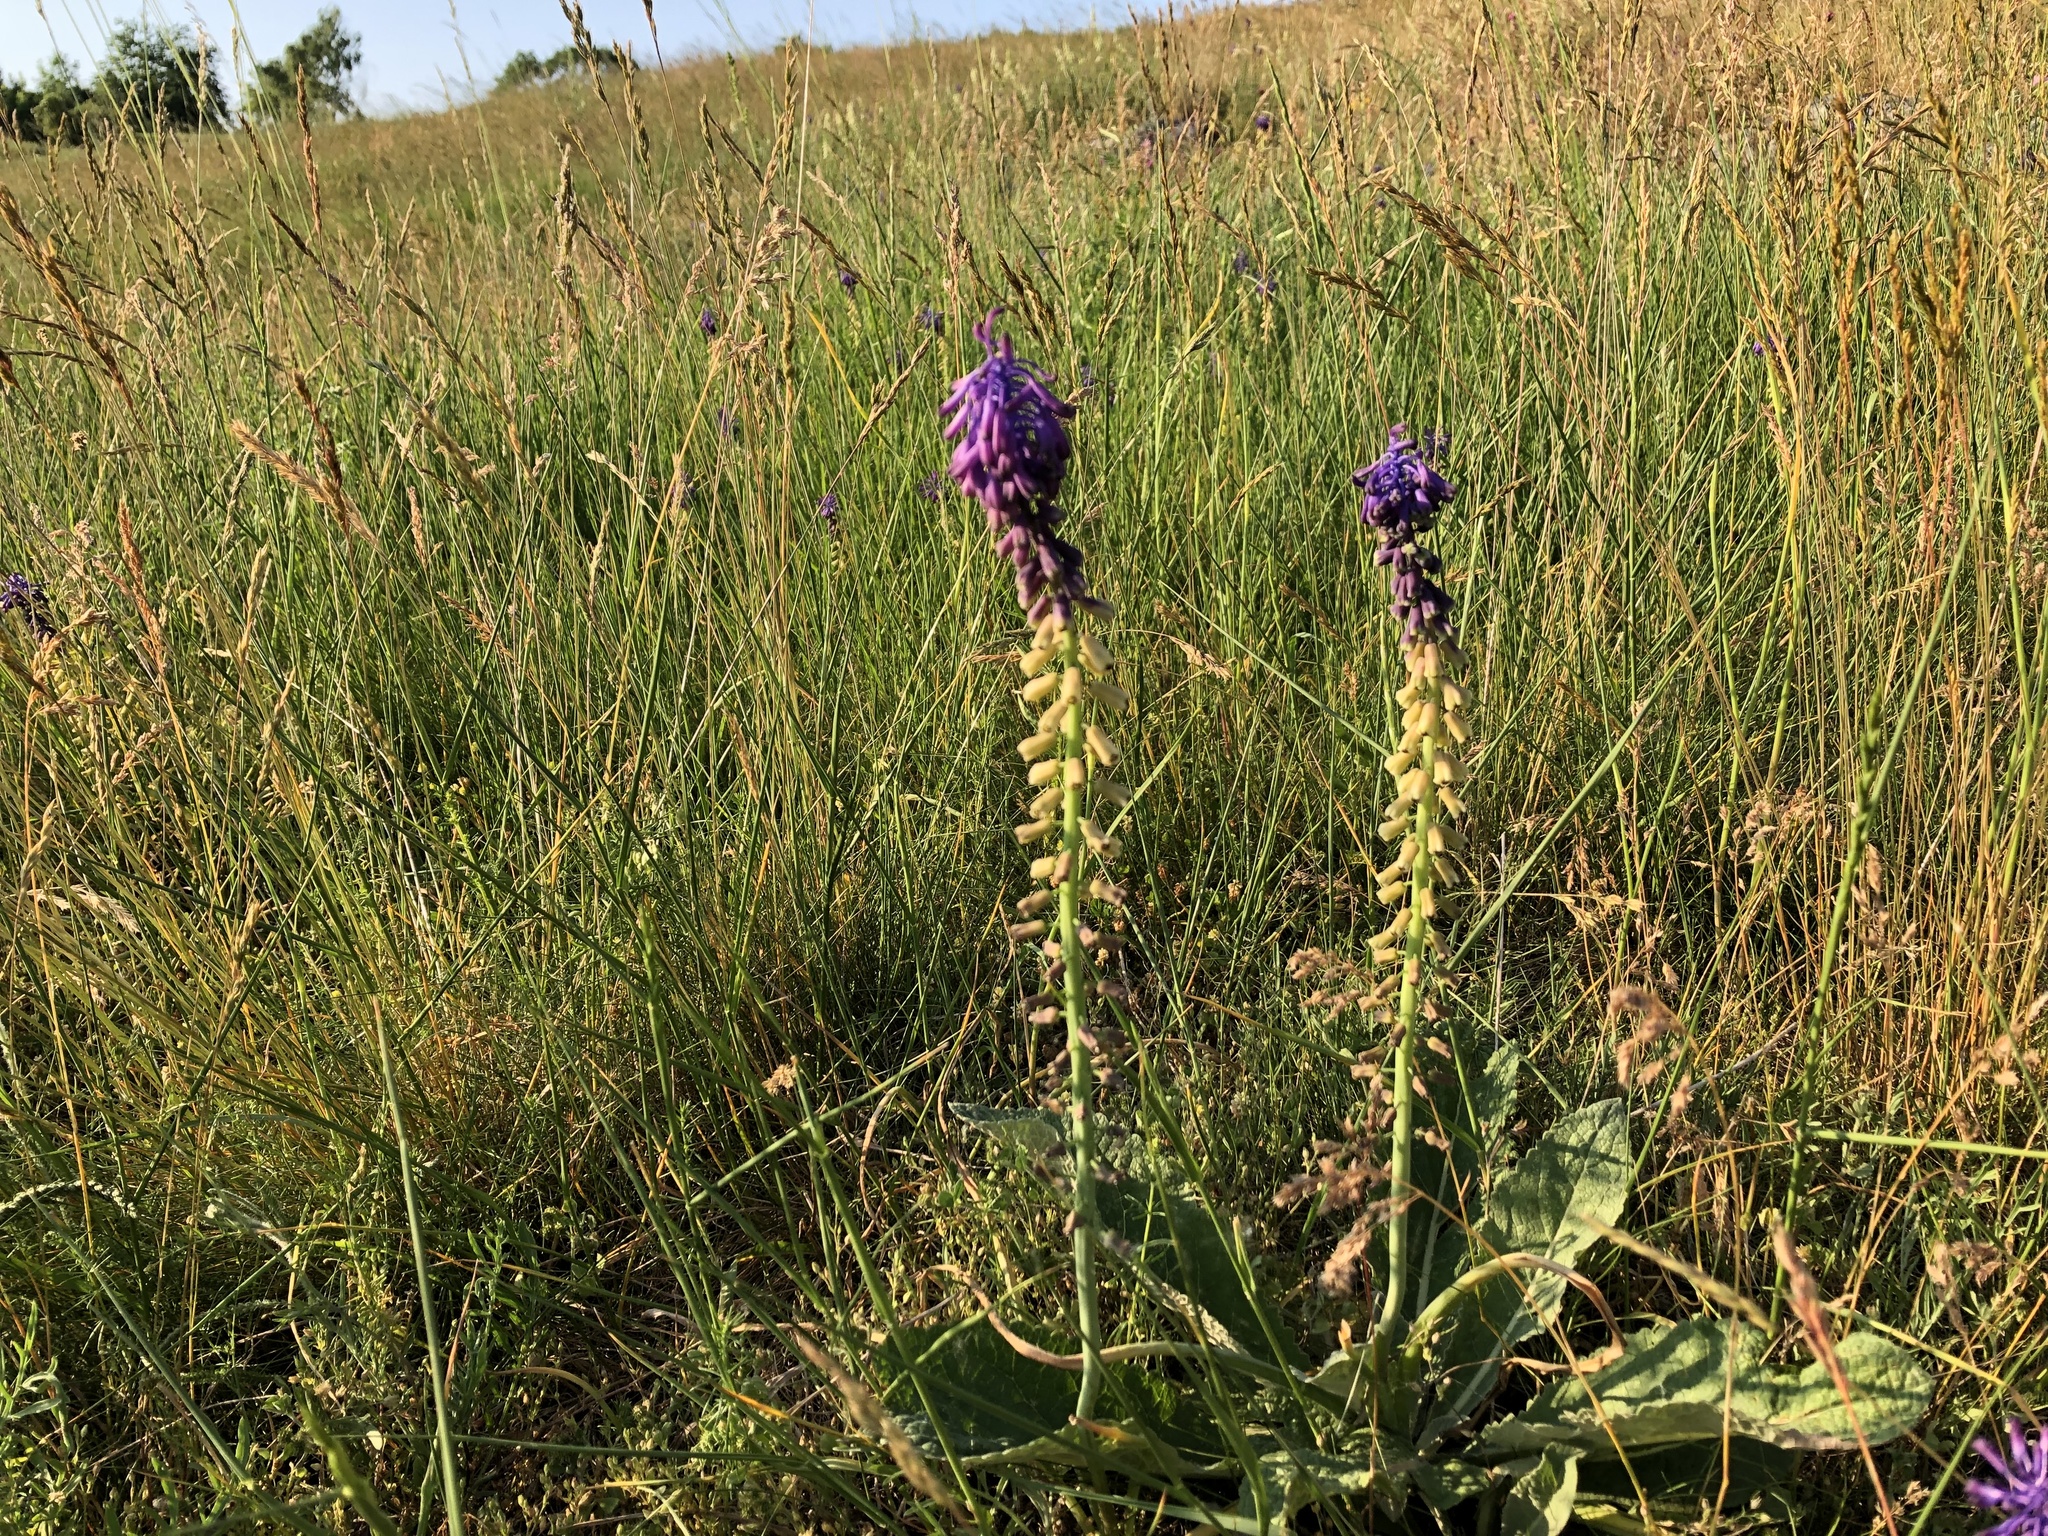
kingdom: Plantae
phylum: Tracheophyta
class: Liliopsida
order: Asparagales
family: Asparagaceae
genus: Muscari
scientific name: Muscari tenuiflorum
